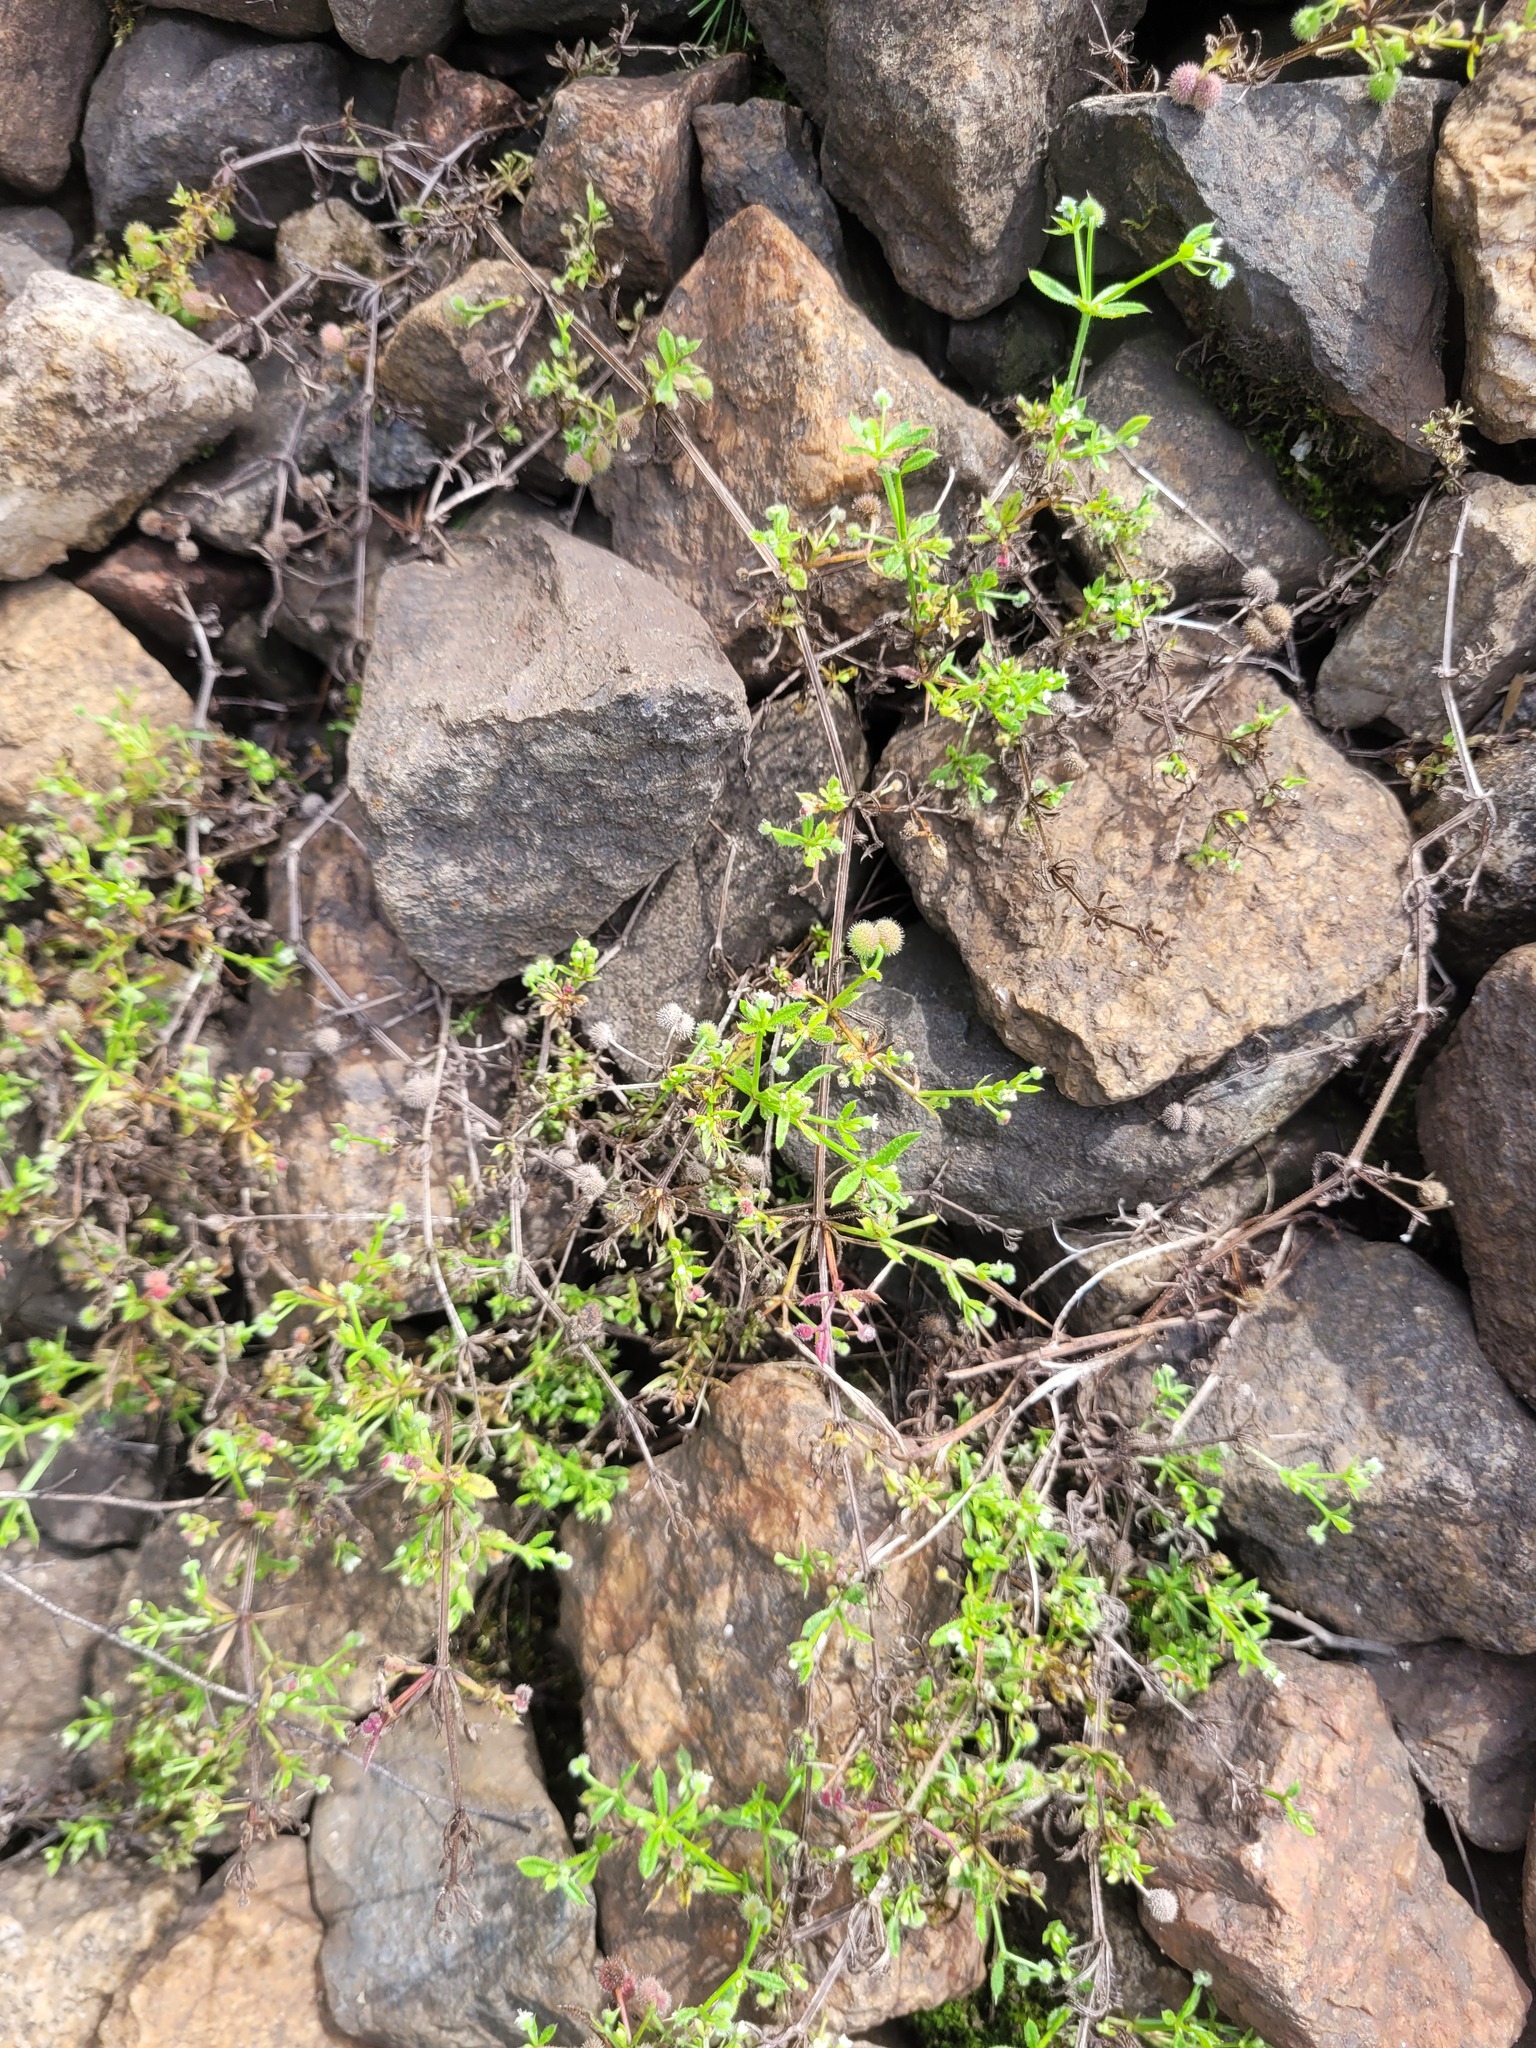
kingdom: Plantae
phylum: Tracheophyta
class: Magnoliopsida
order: Gentianales
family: Rubiaceae
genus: Galium
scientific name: Galium aparine
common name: Cleavers
